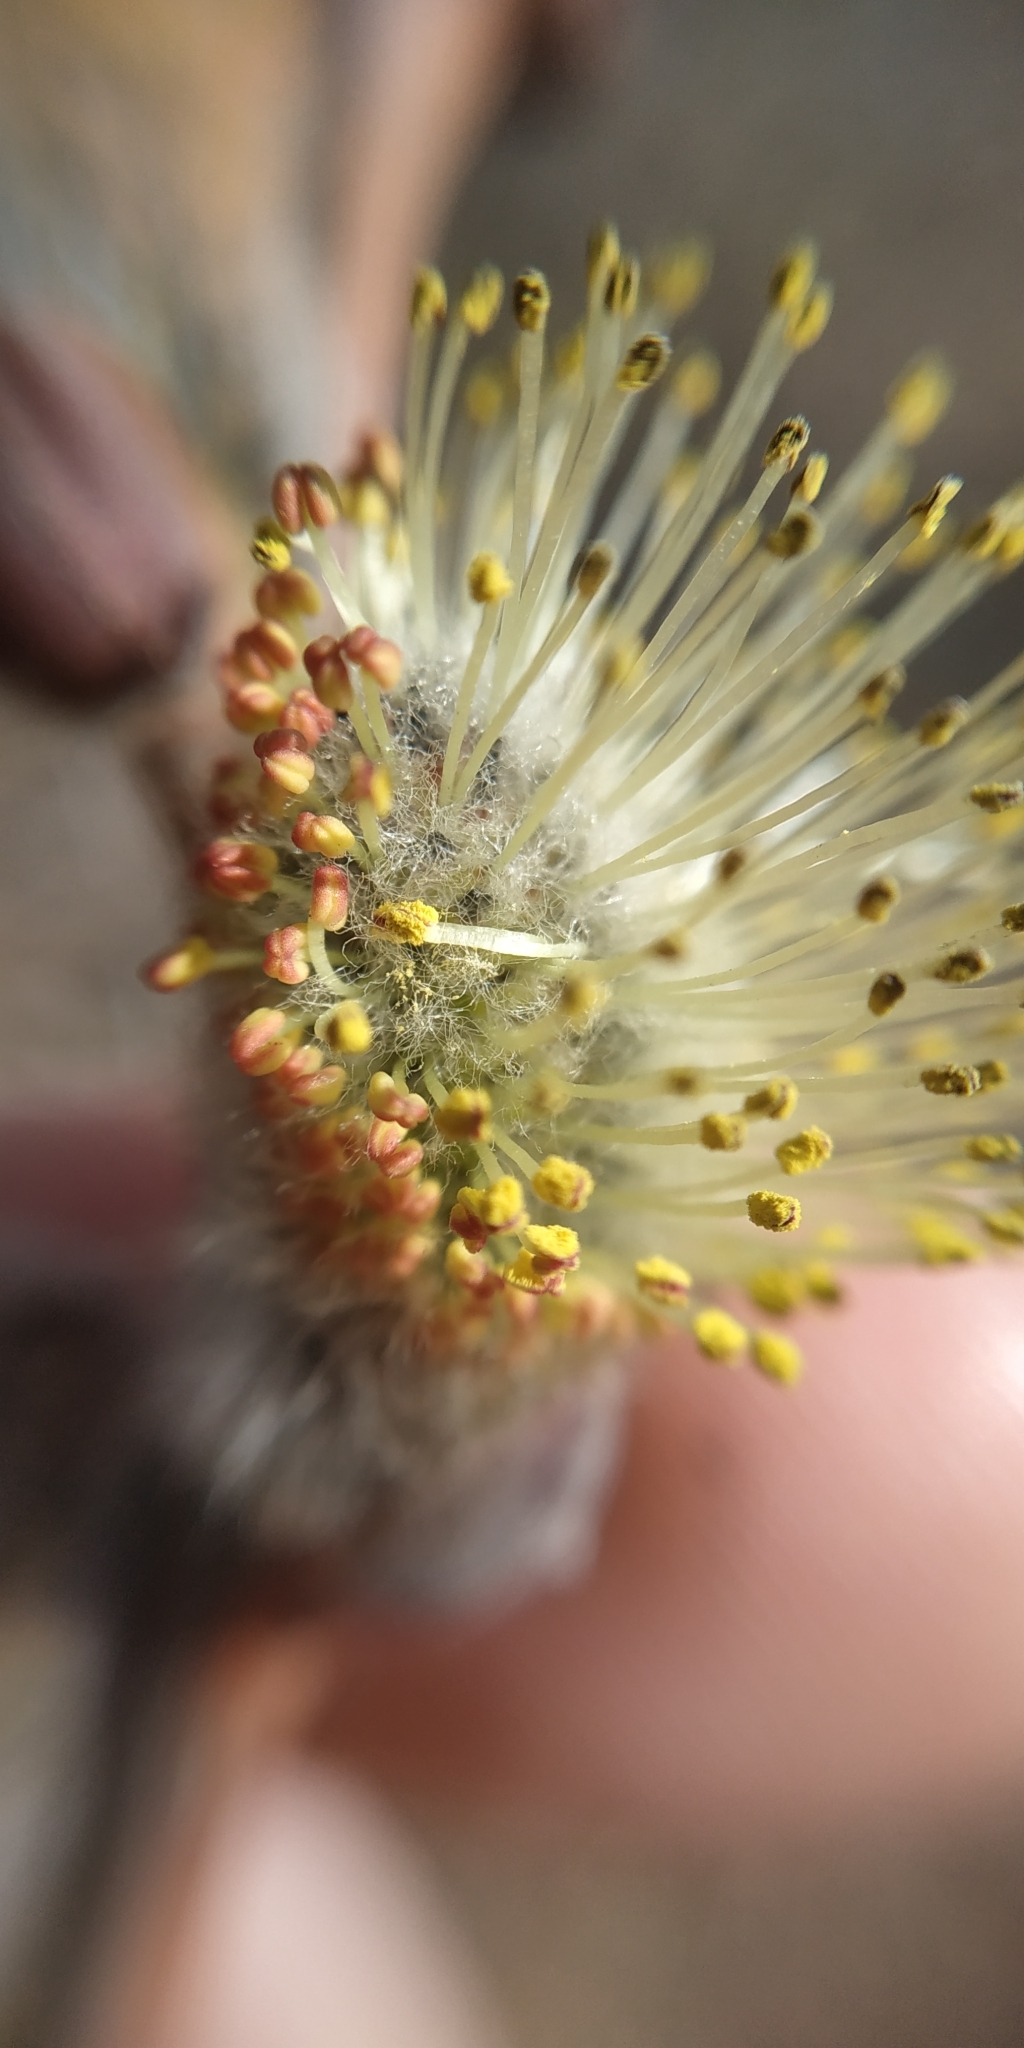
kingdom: Plantae
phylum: Tracheophyta
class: Magnoliopsida
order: Malpighiales
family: Salicaceae
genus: Salix
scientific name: Salix cinerea
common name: Common sallow
